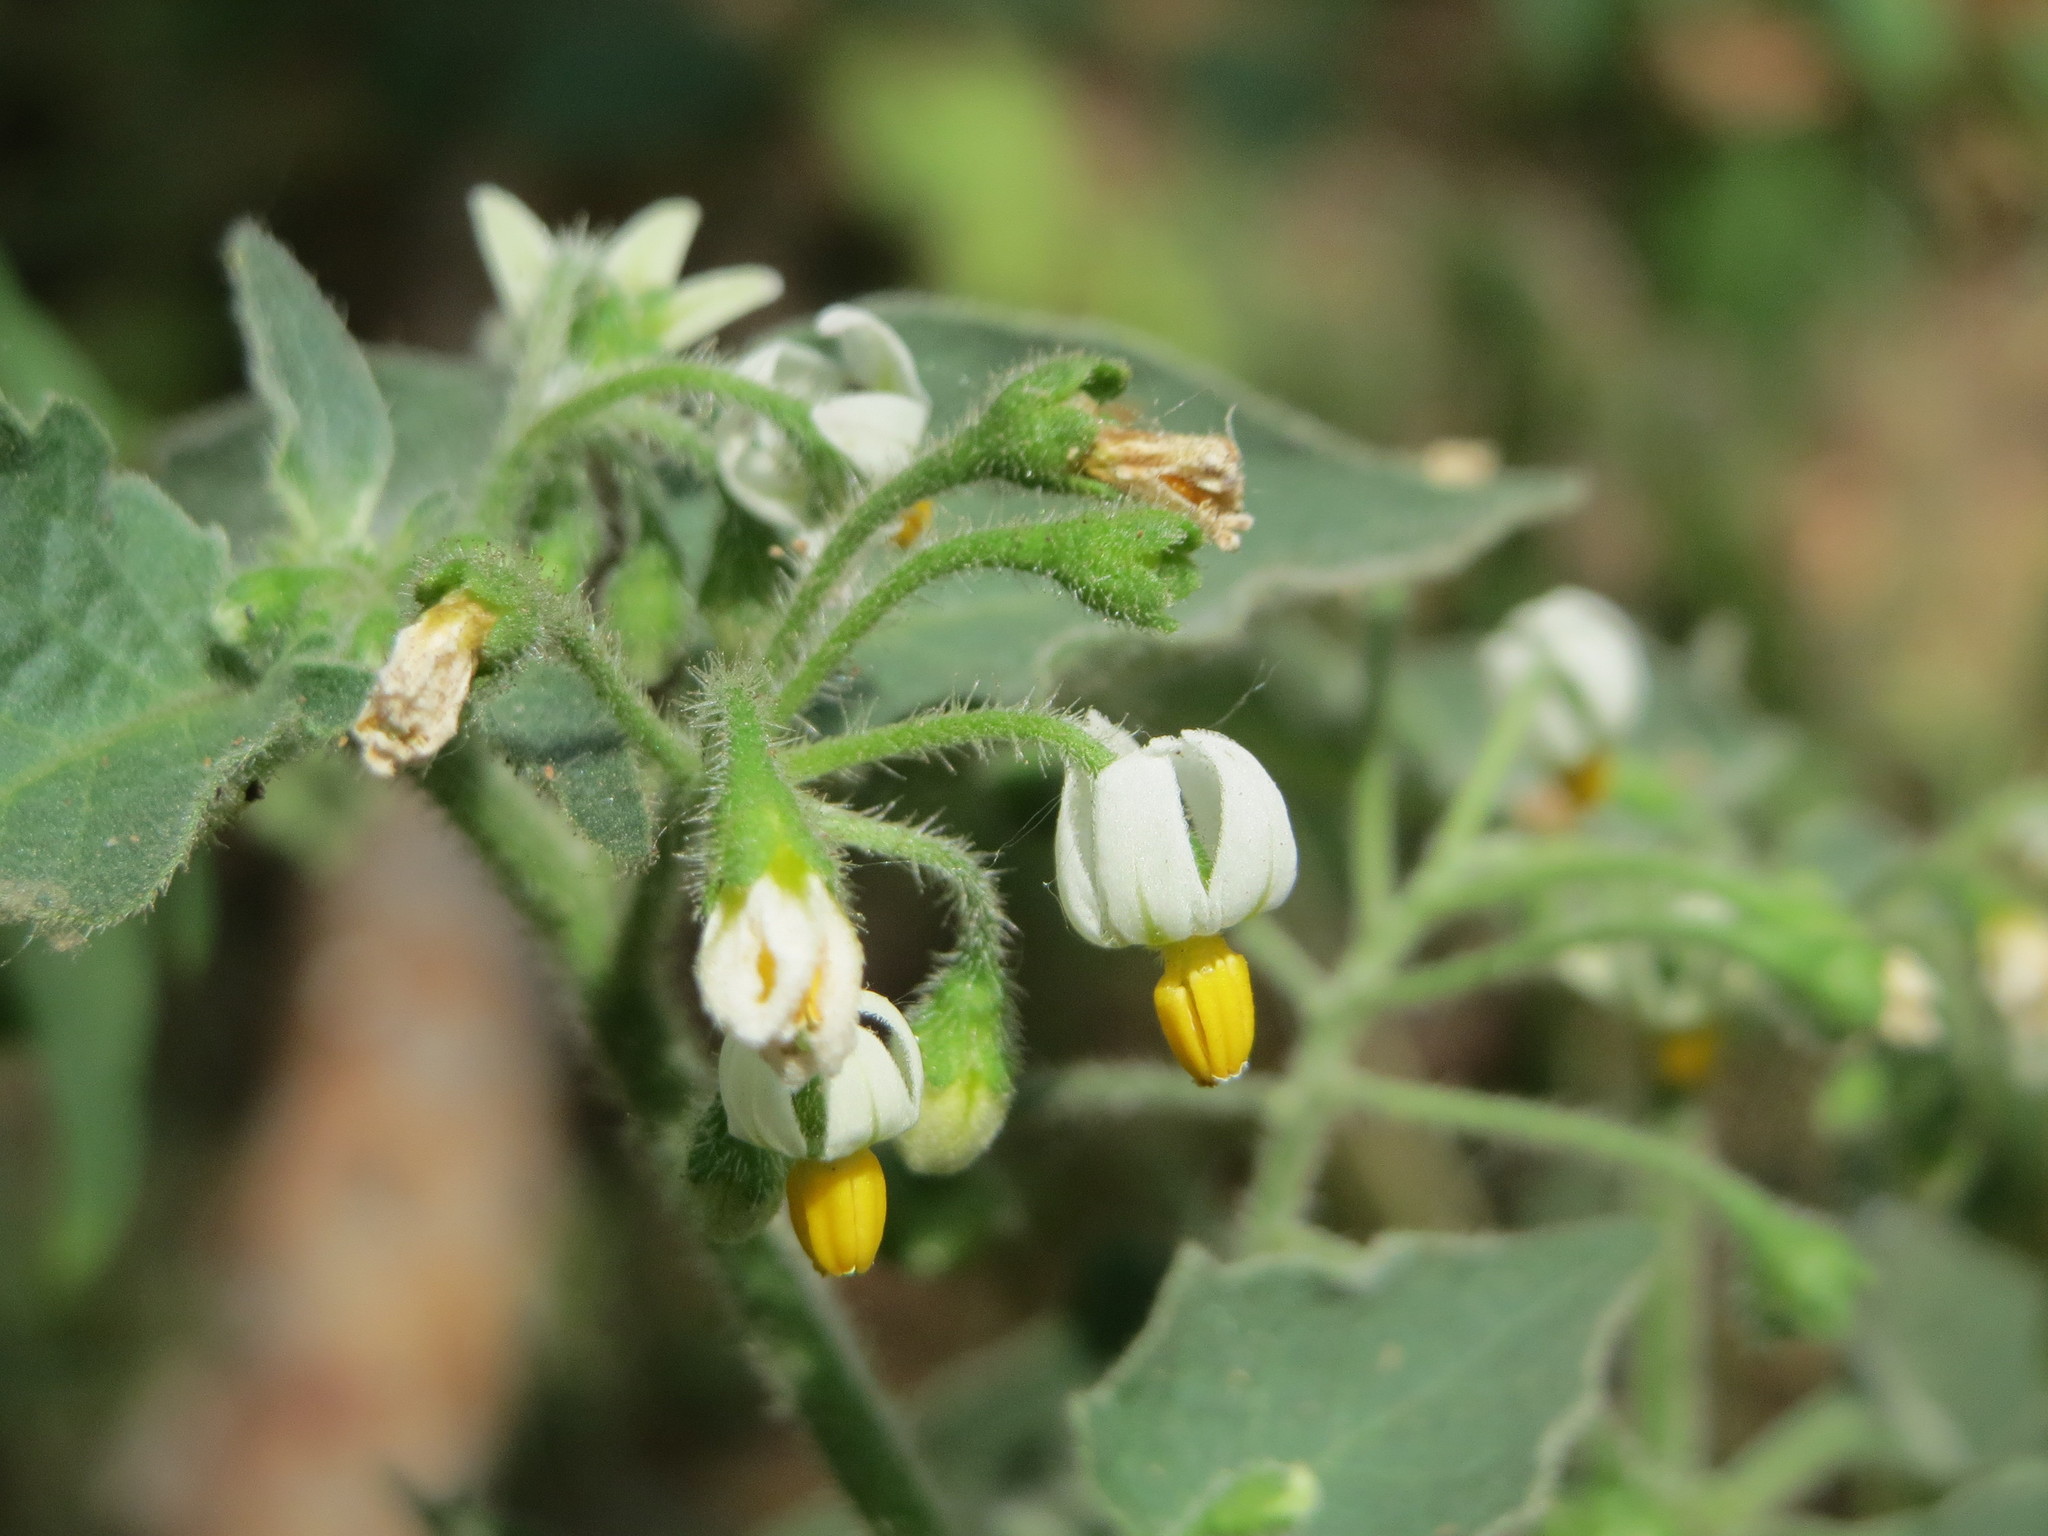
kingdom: Plantae
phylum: Tracheophyta
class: Magnoliopsida
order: Solanales
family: Solanaceae
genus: Solanum
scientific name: Solanum nigrum
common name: Black nightshade
